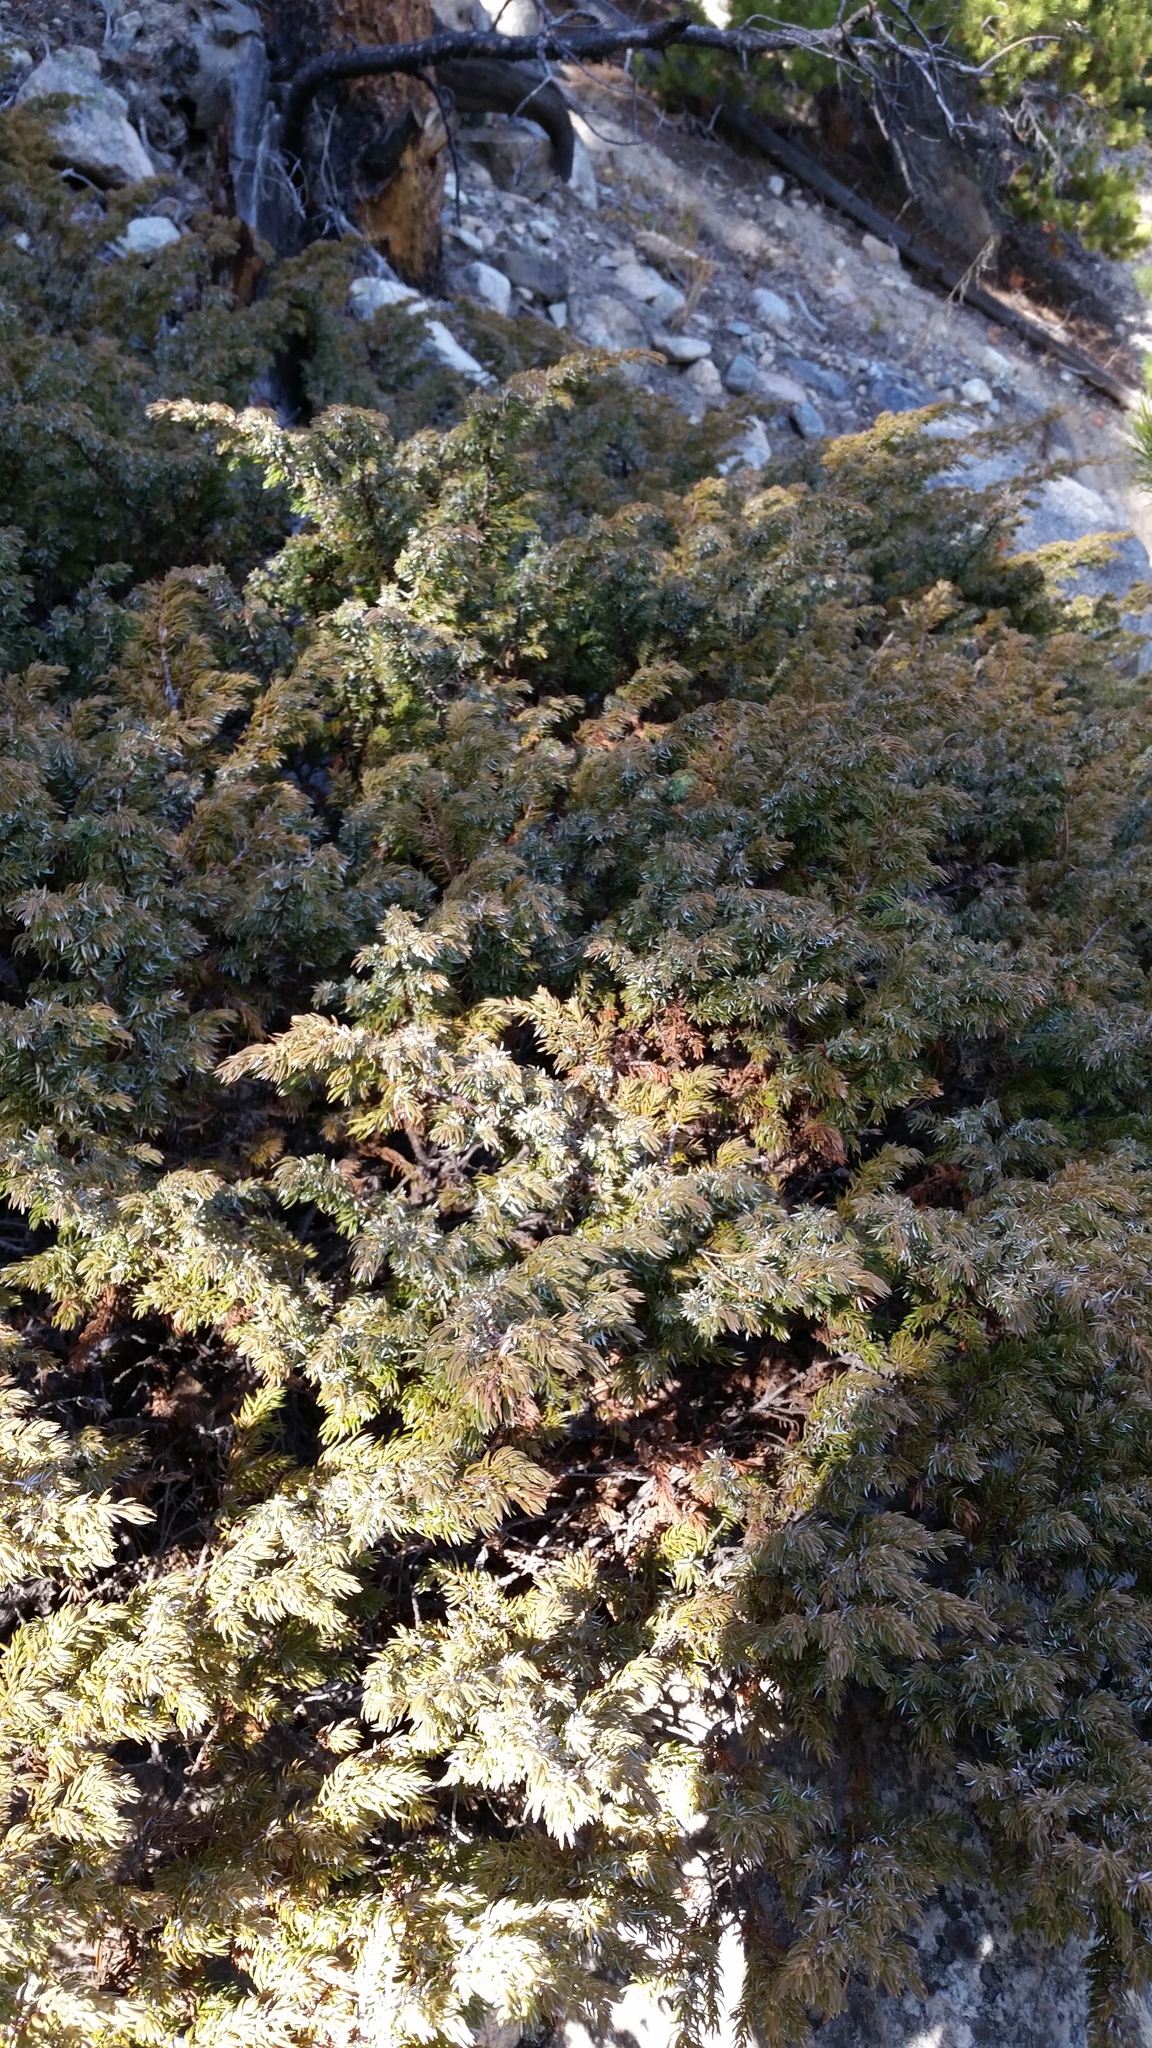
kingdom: Plantae
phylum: Tracheophyta
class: Pinopsida
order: Pinales
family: Cupressaceae
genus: Juniperus
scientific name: Juniperus communis
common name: Common juniper
